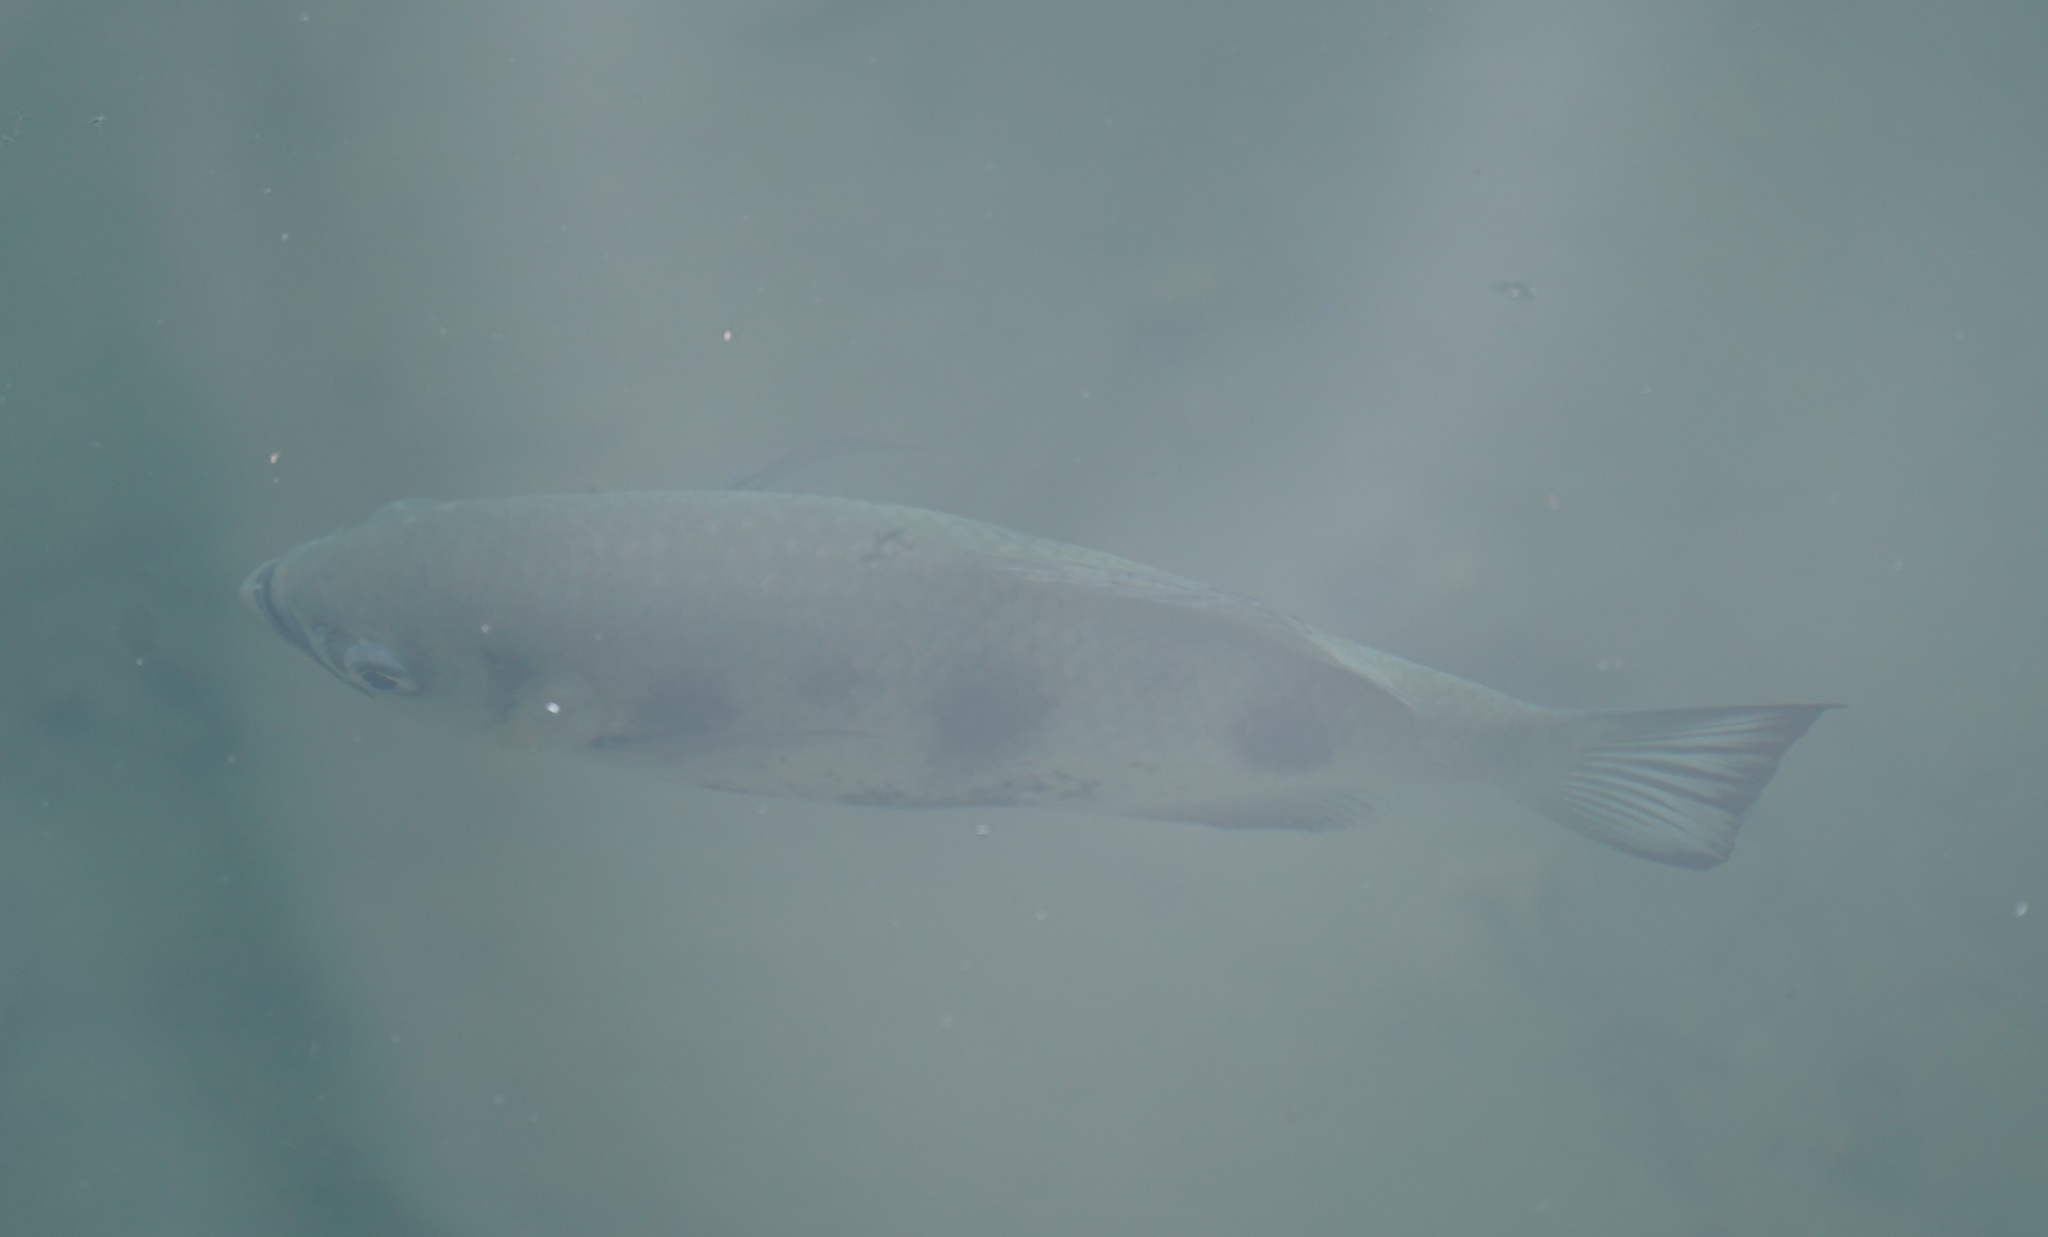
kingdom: Animalia
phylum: Chordata
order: Perciformes
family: Toxotidae
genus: Toxotes
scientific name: Toxotes chatareus
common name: Spotted archerfish
